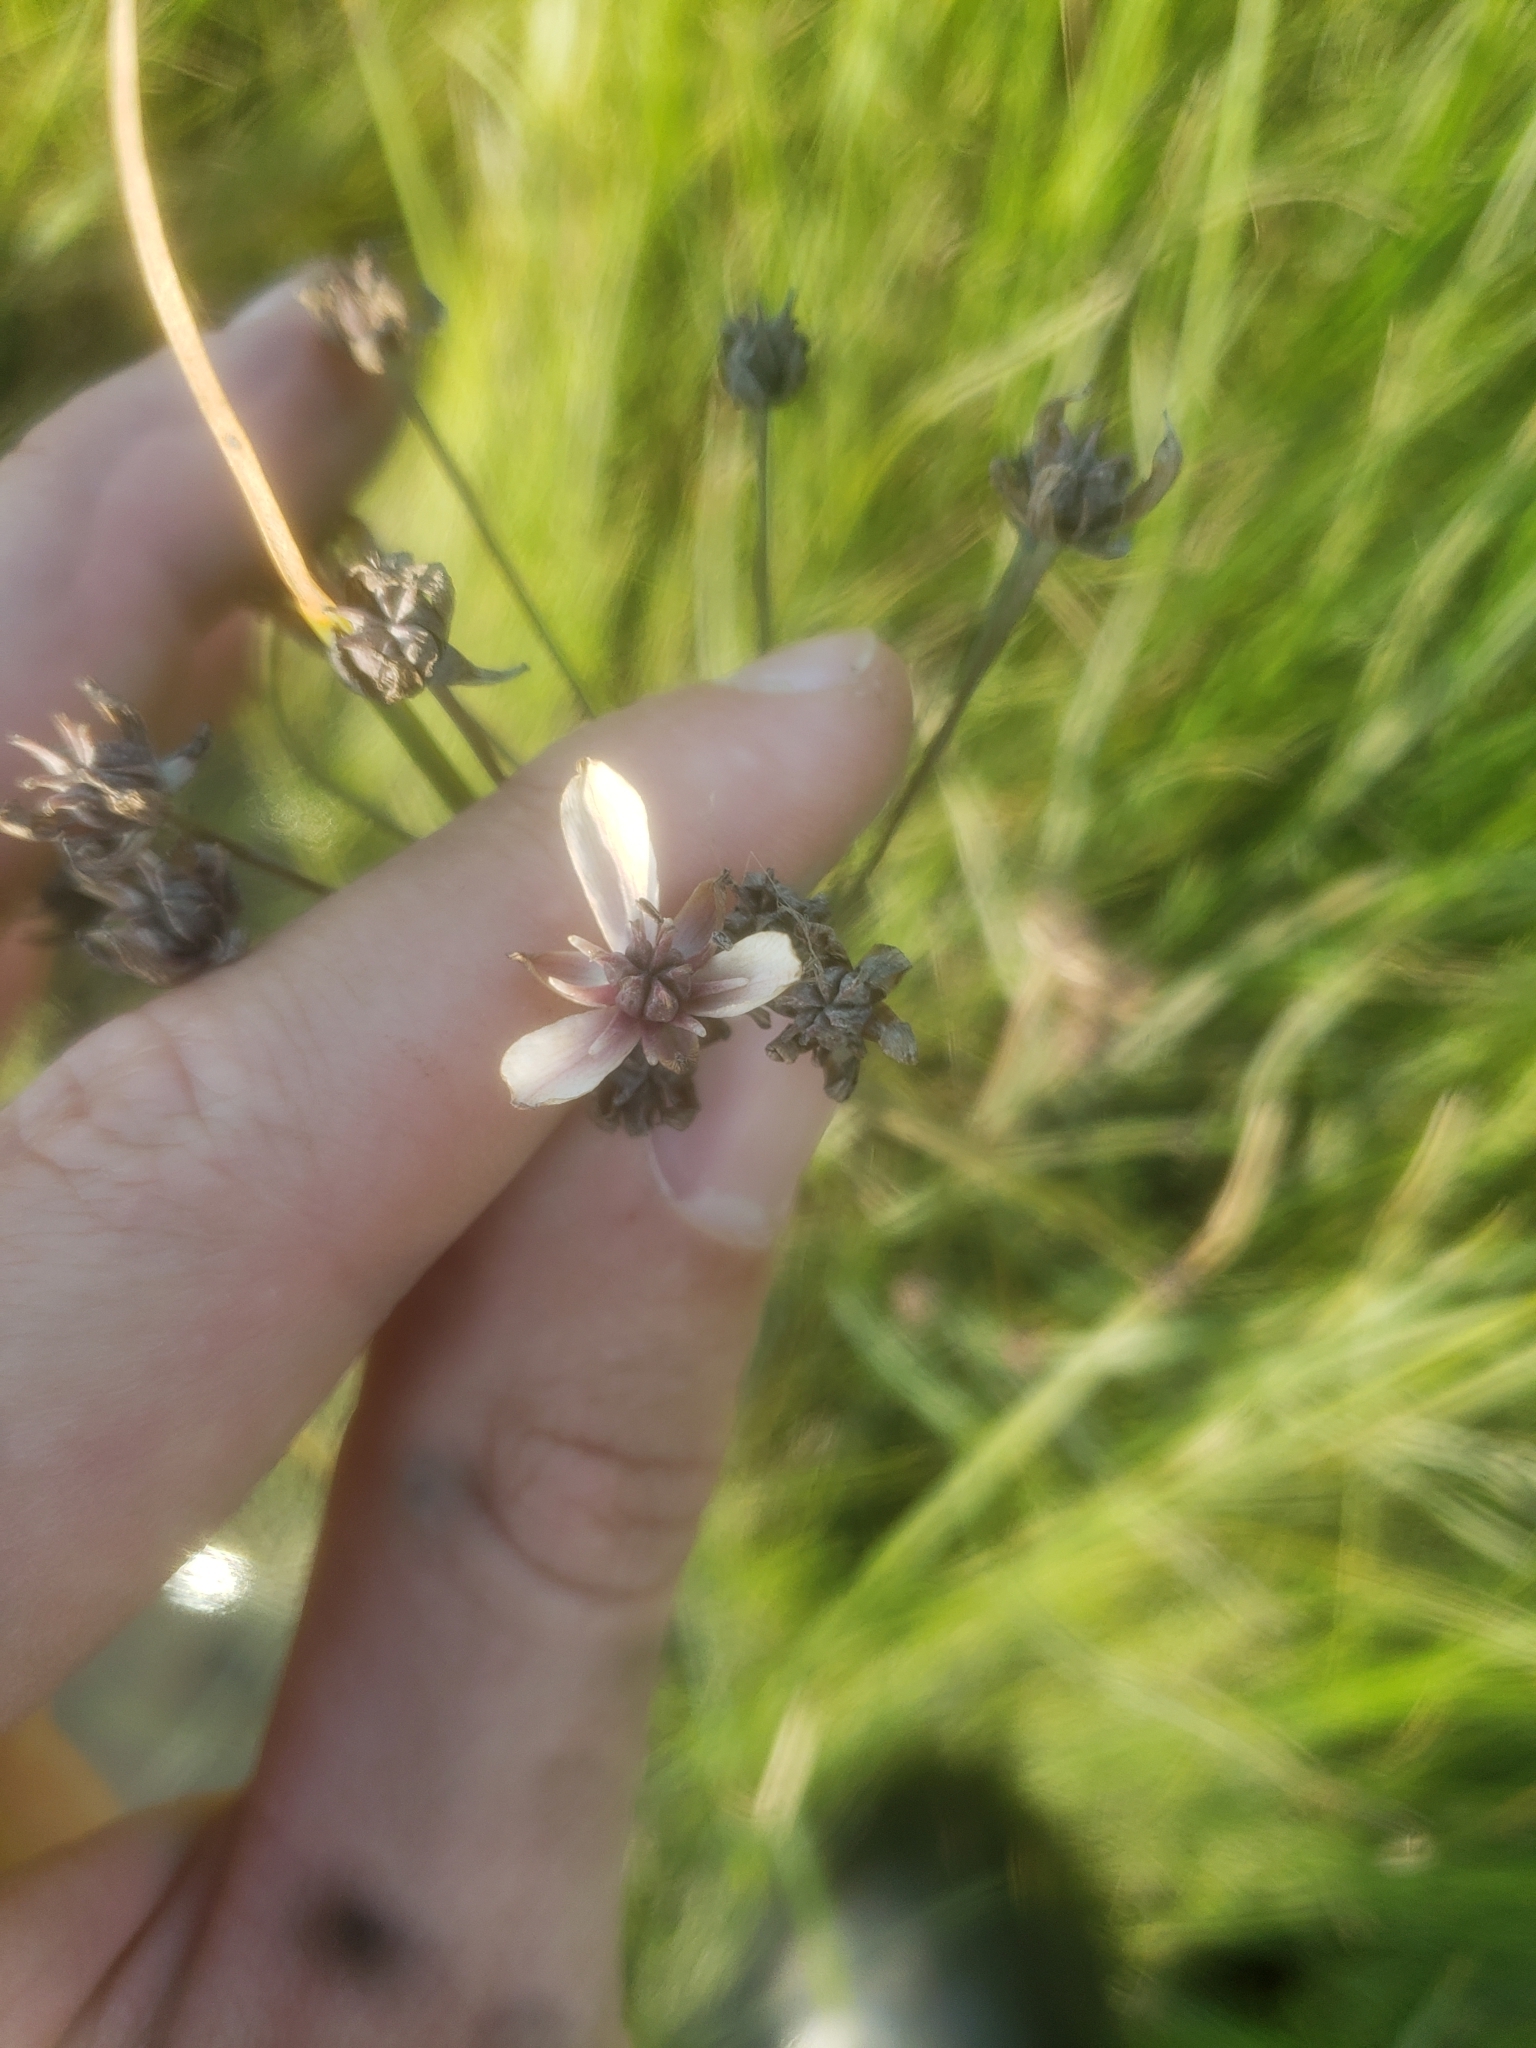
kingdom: Plantae
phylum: Tracheophyta
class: Liliopsida
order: Alismatales
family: Butomaceae
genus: Butomus
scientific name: Butomus umbellatus
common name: Flowering-rush
